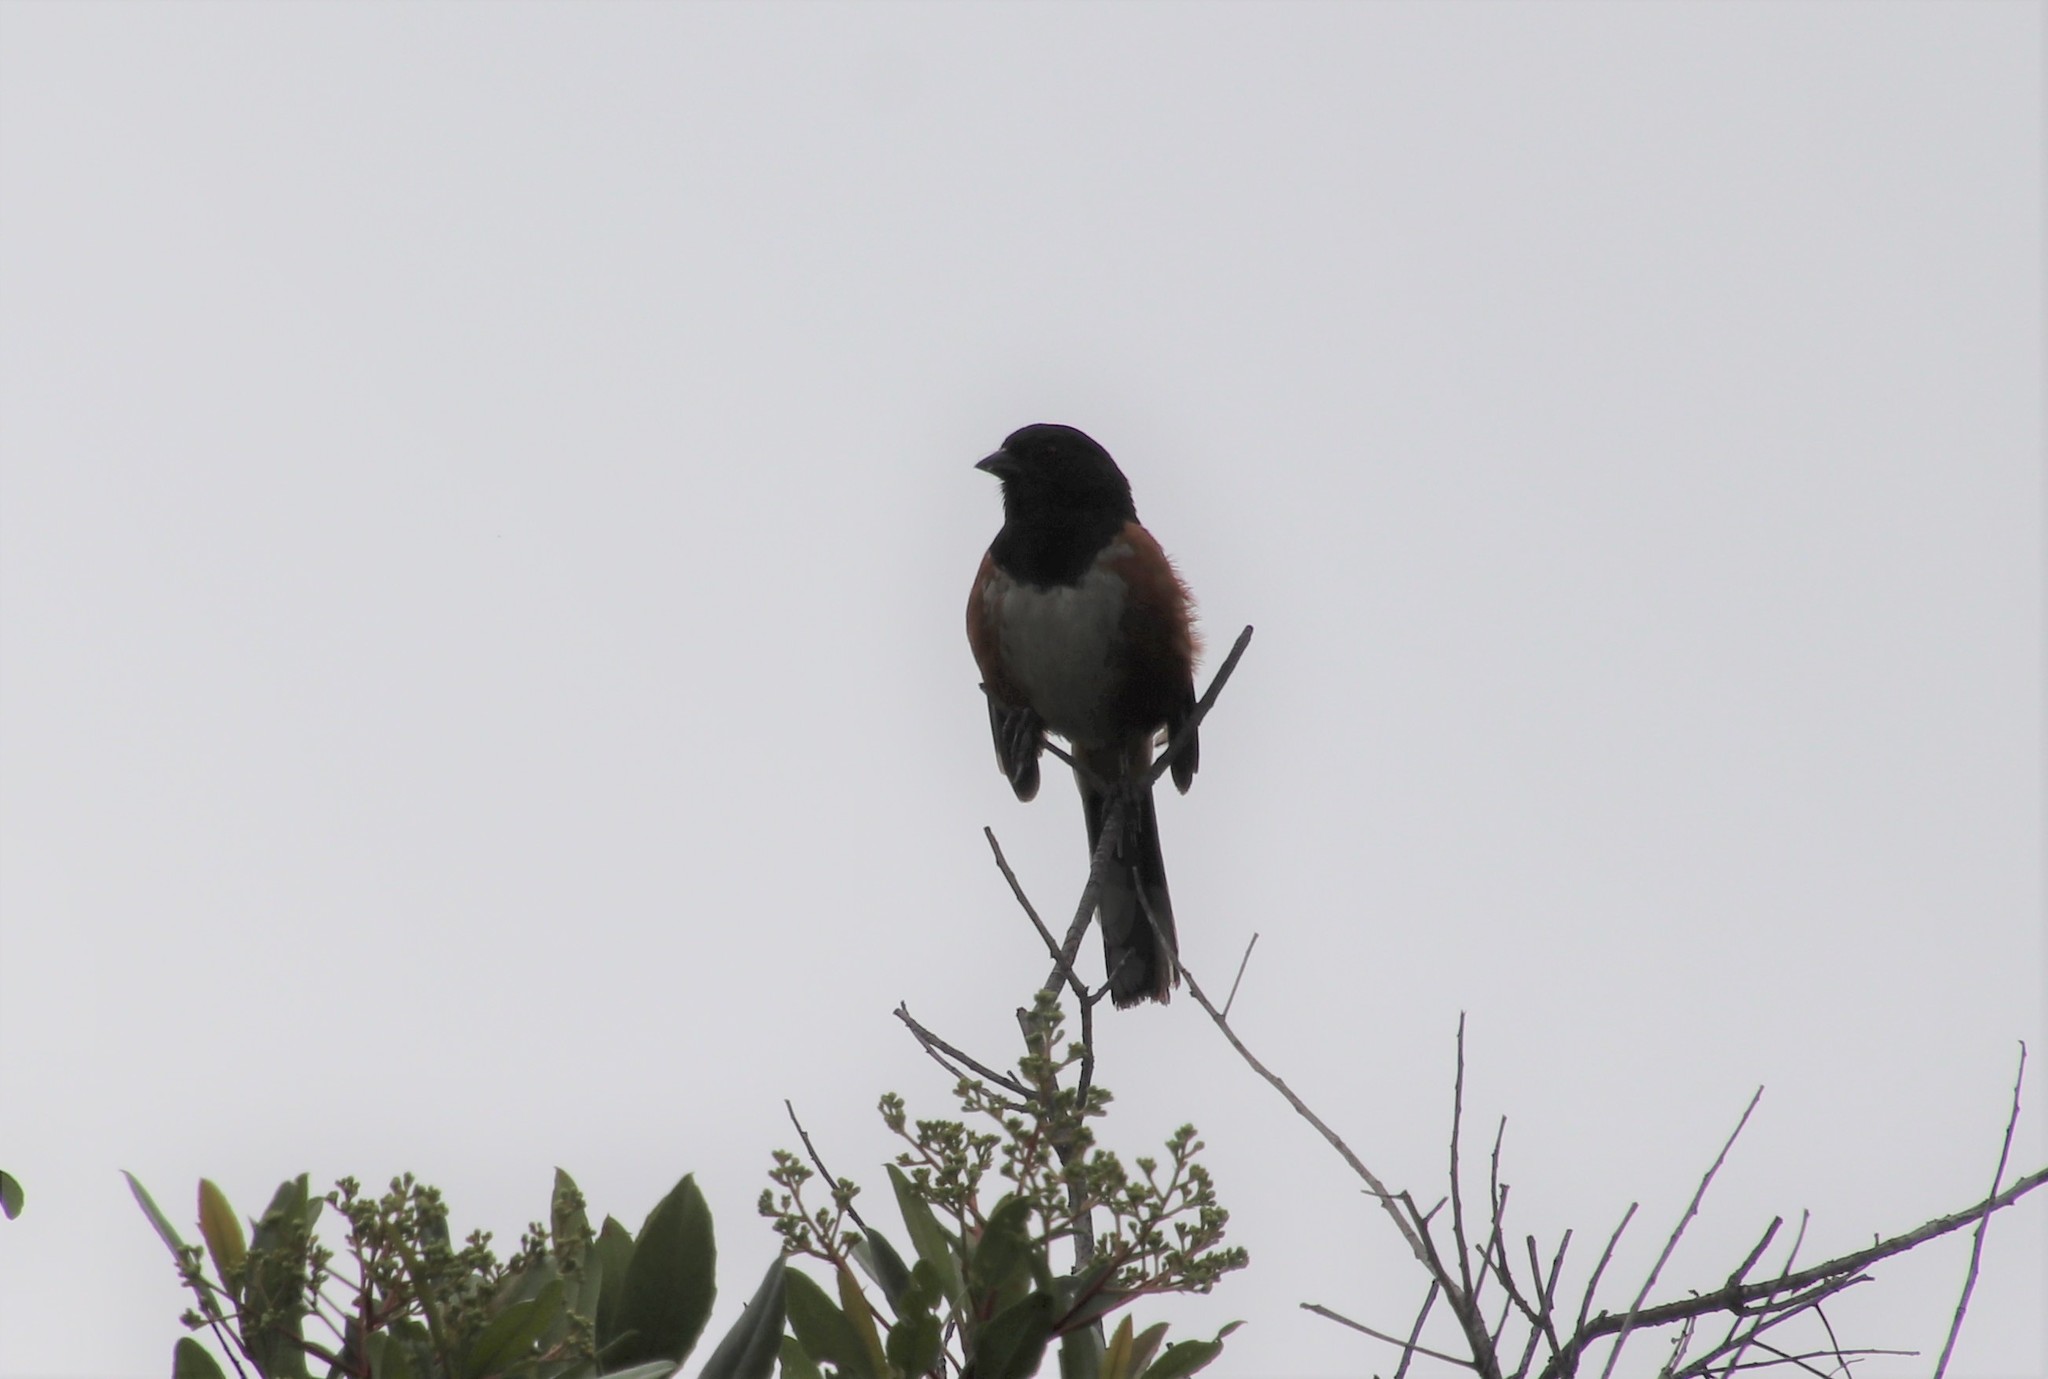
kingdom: Animalia
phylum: Chordata
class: Aves
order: Passeriformes
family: Passerellidae
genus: Pipilo
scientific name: Pipilo maculatus
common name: Spotted towhee
